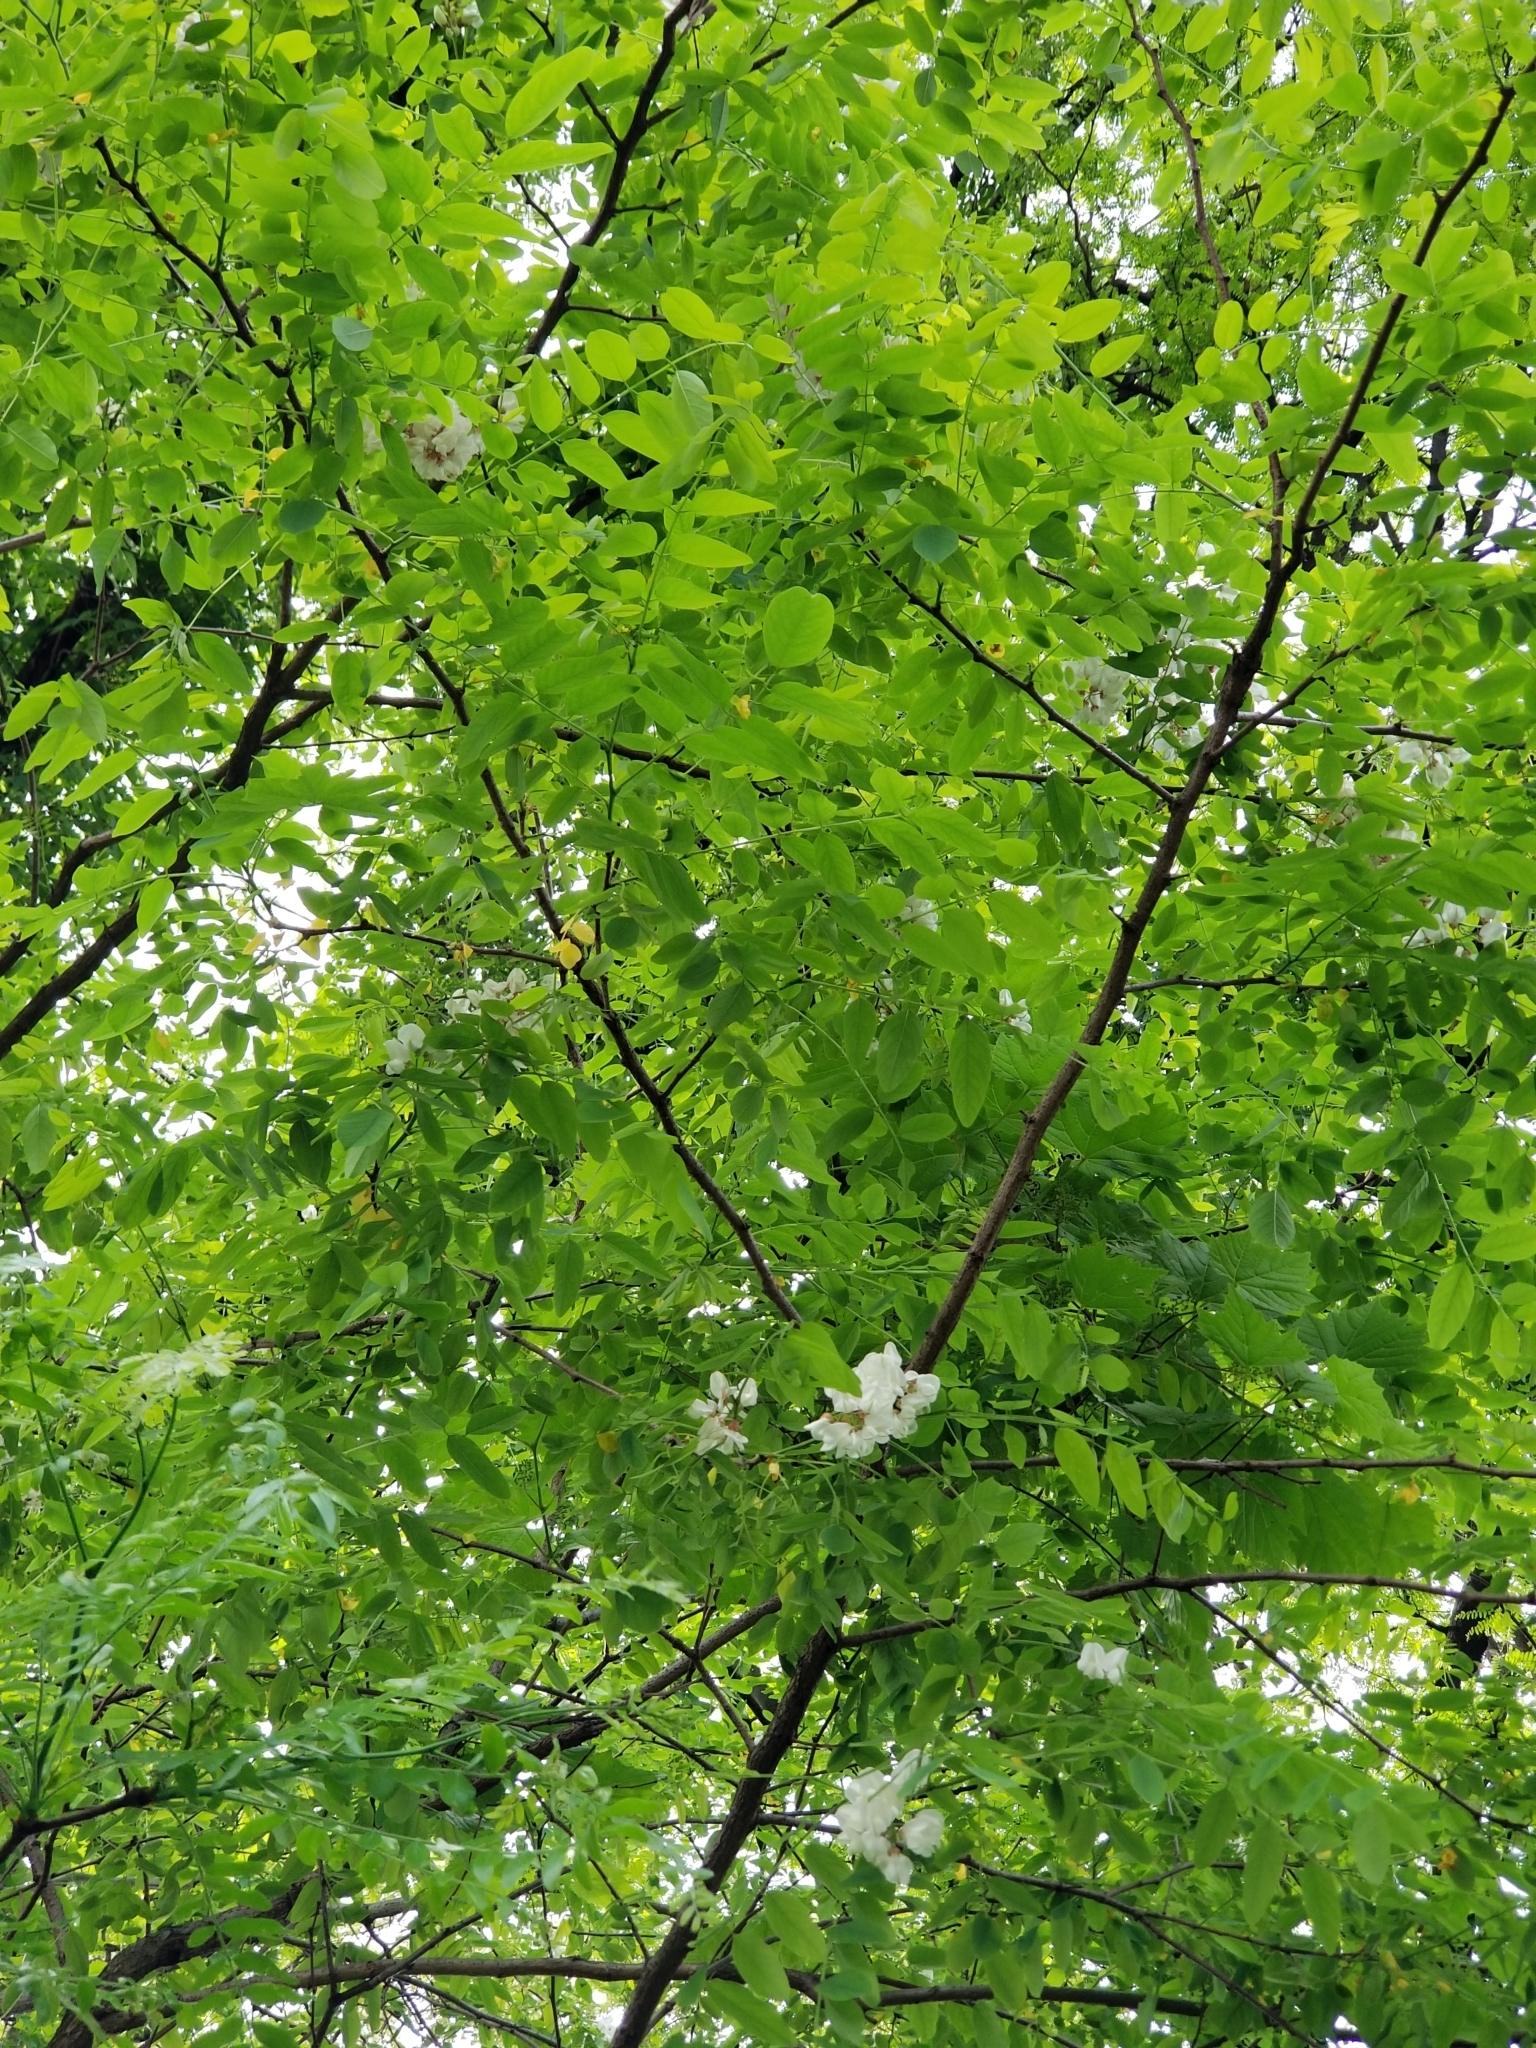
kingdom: Plantae
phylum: Tracheophyta
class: Magnoliopsida
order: Fabales
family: Fabaceae
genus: Robinia
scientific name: Robinia pseudoacacia
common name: Black locust
